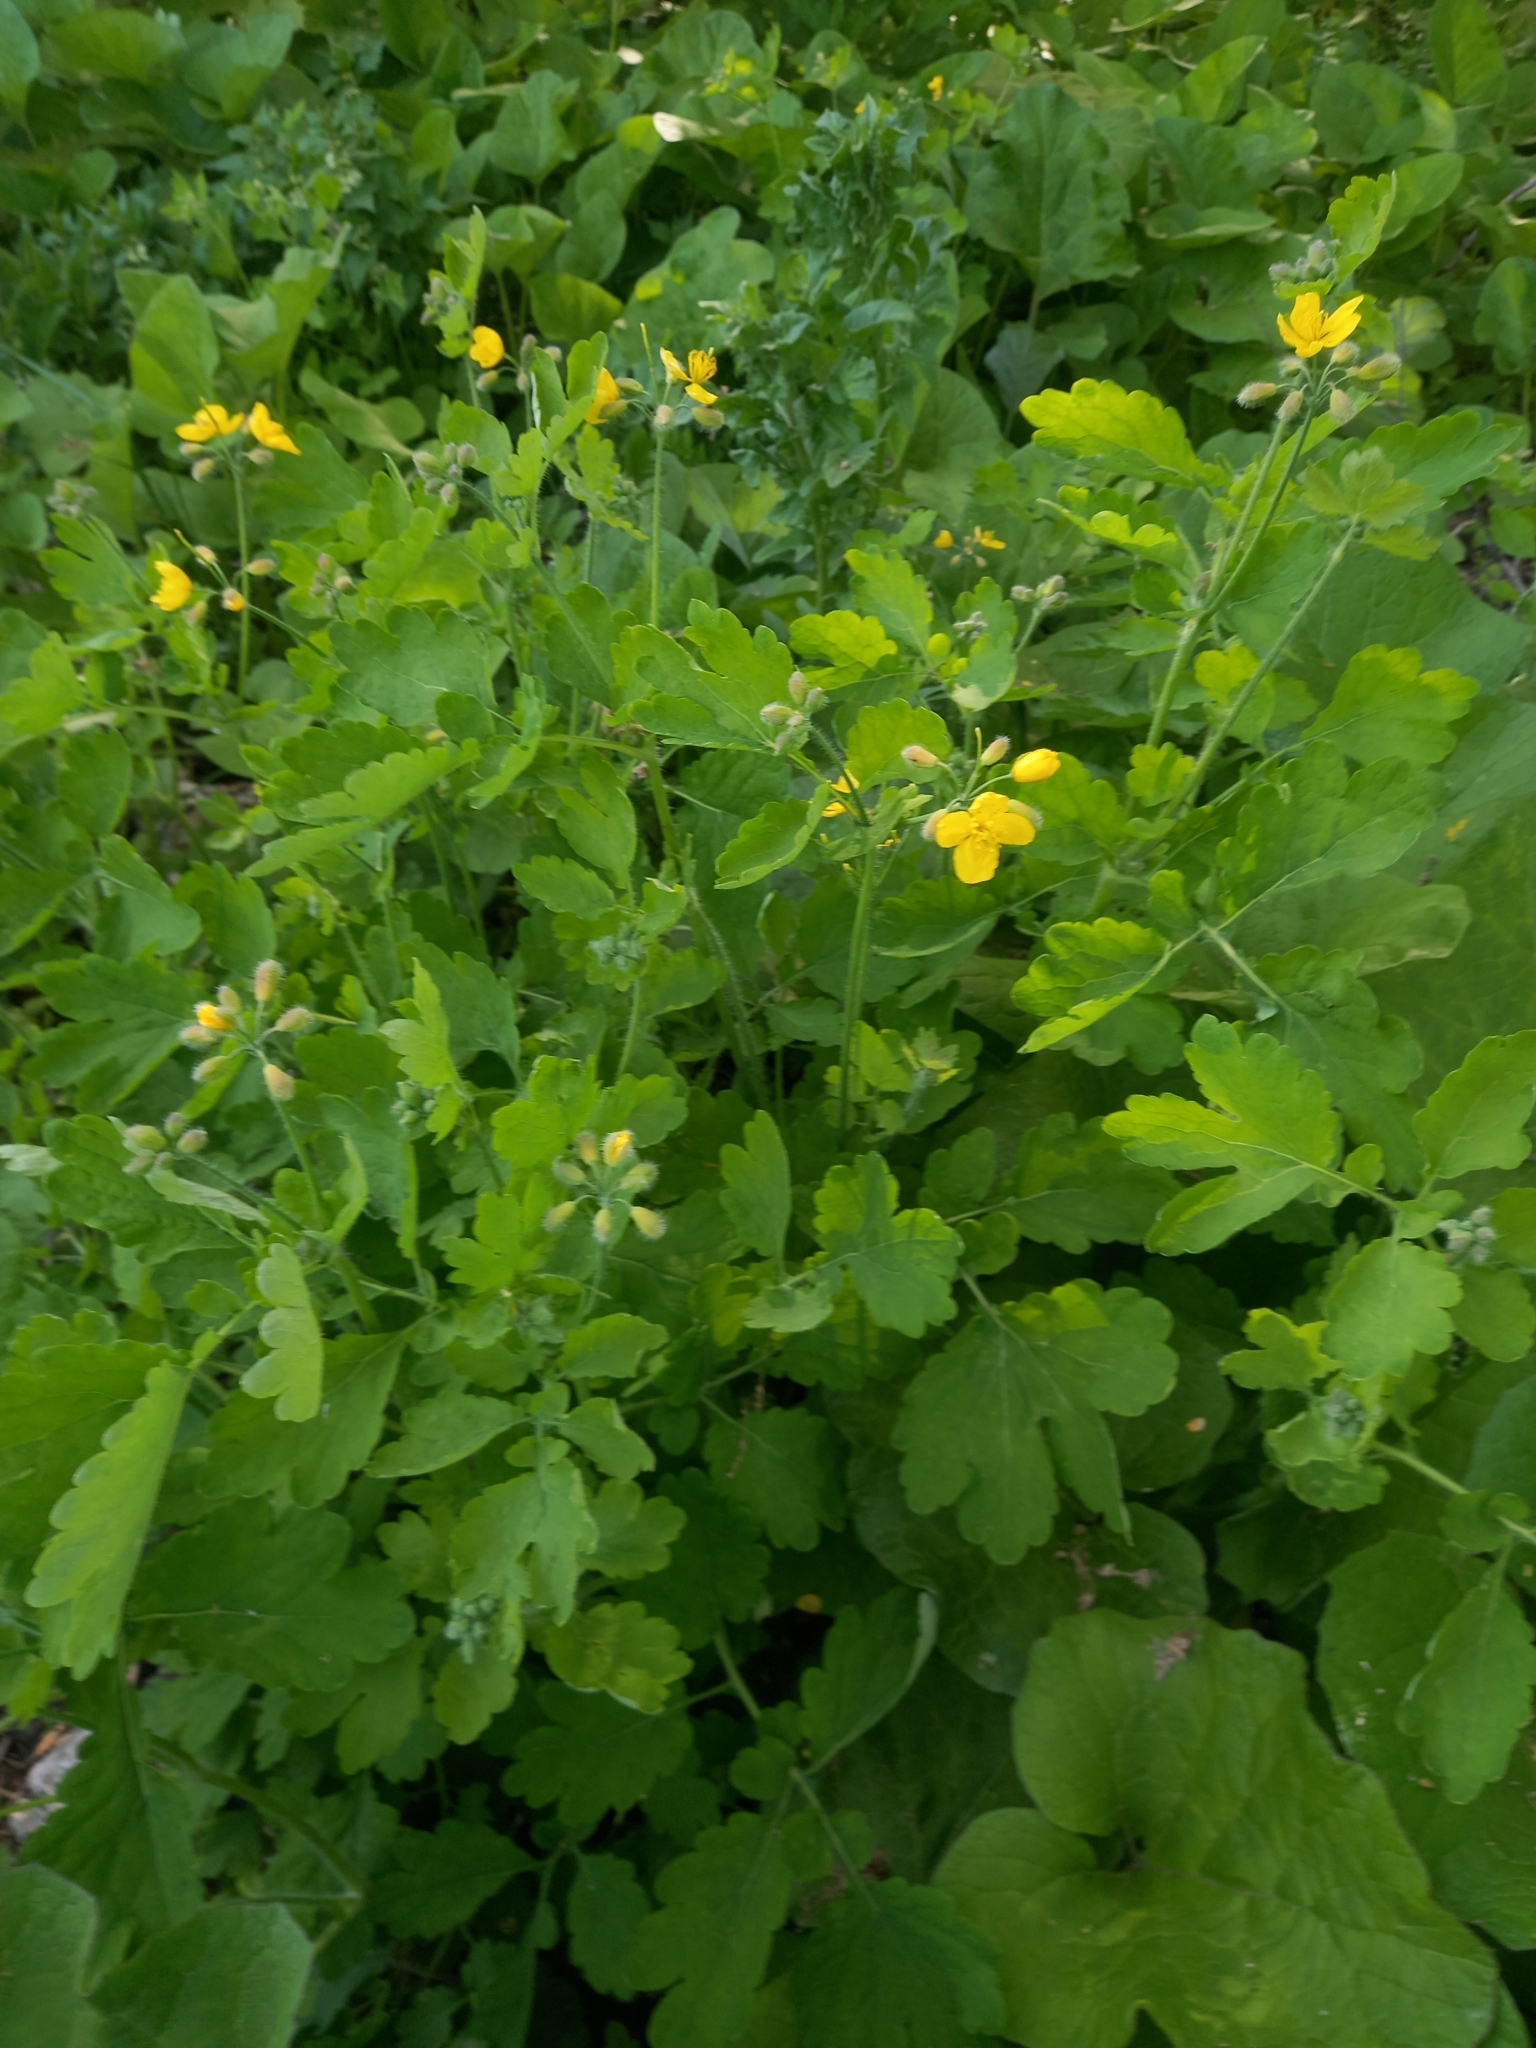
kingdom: Plantae
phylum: Tracheophyta
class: Magnoliopsida
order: Ranunculales
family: Papaveraceae
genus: Chelidonium
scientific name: Chelidonium majus
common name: Greater celandine
